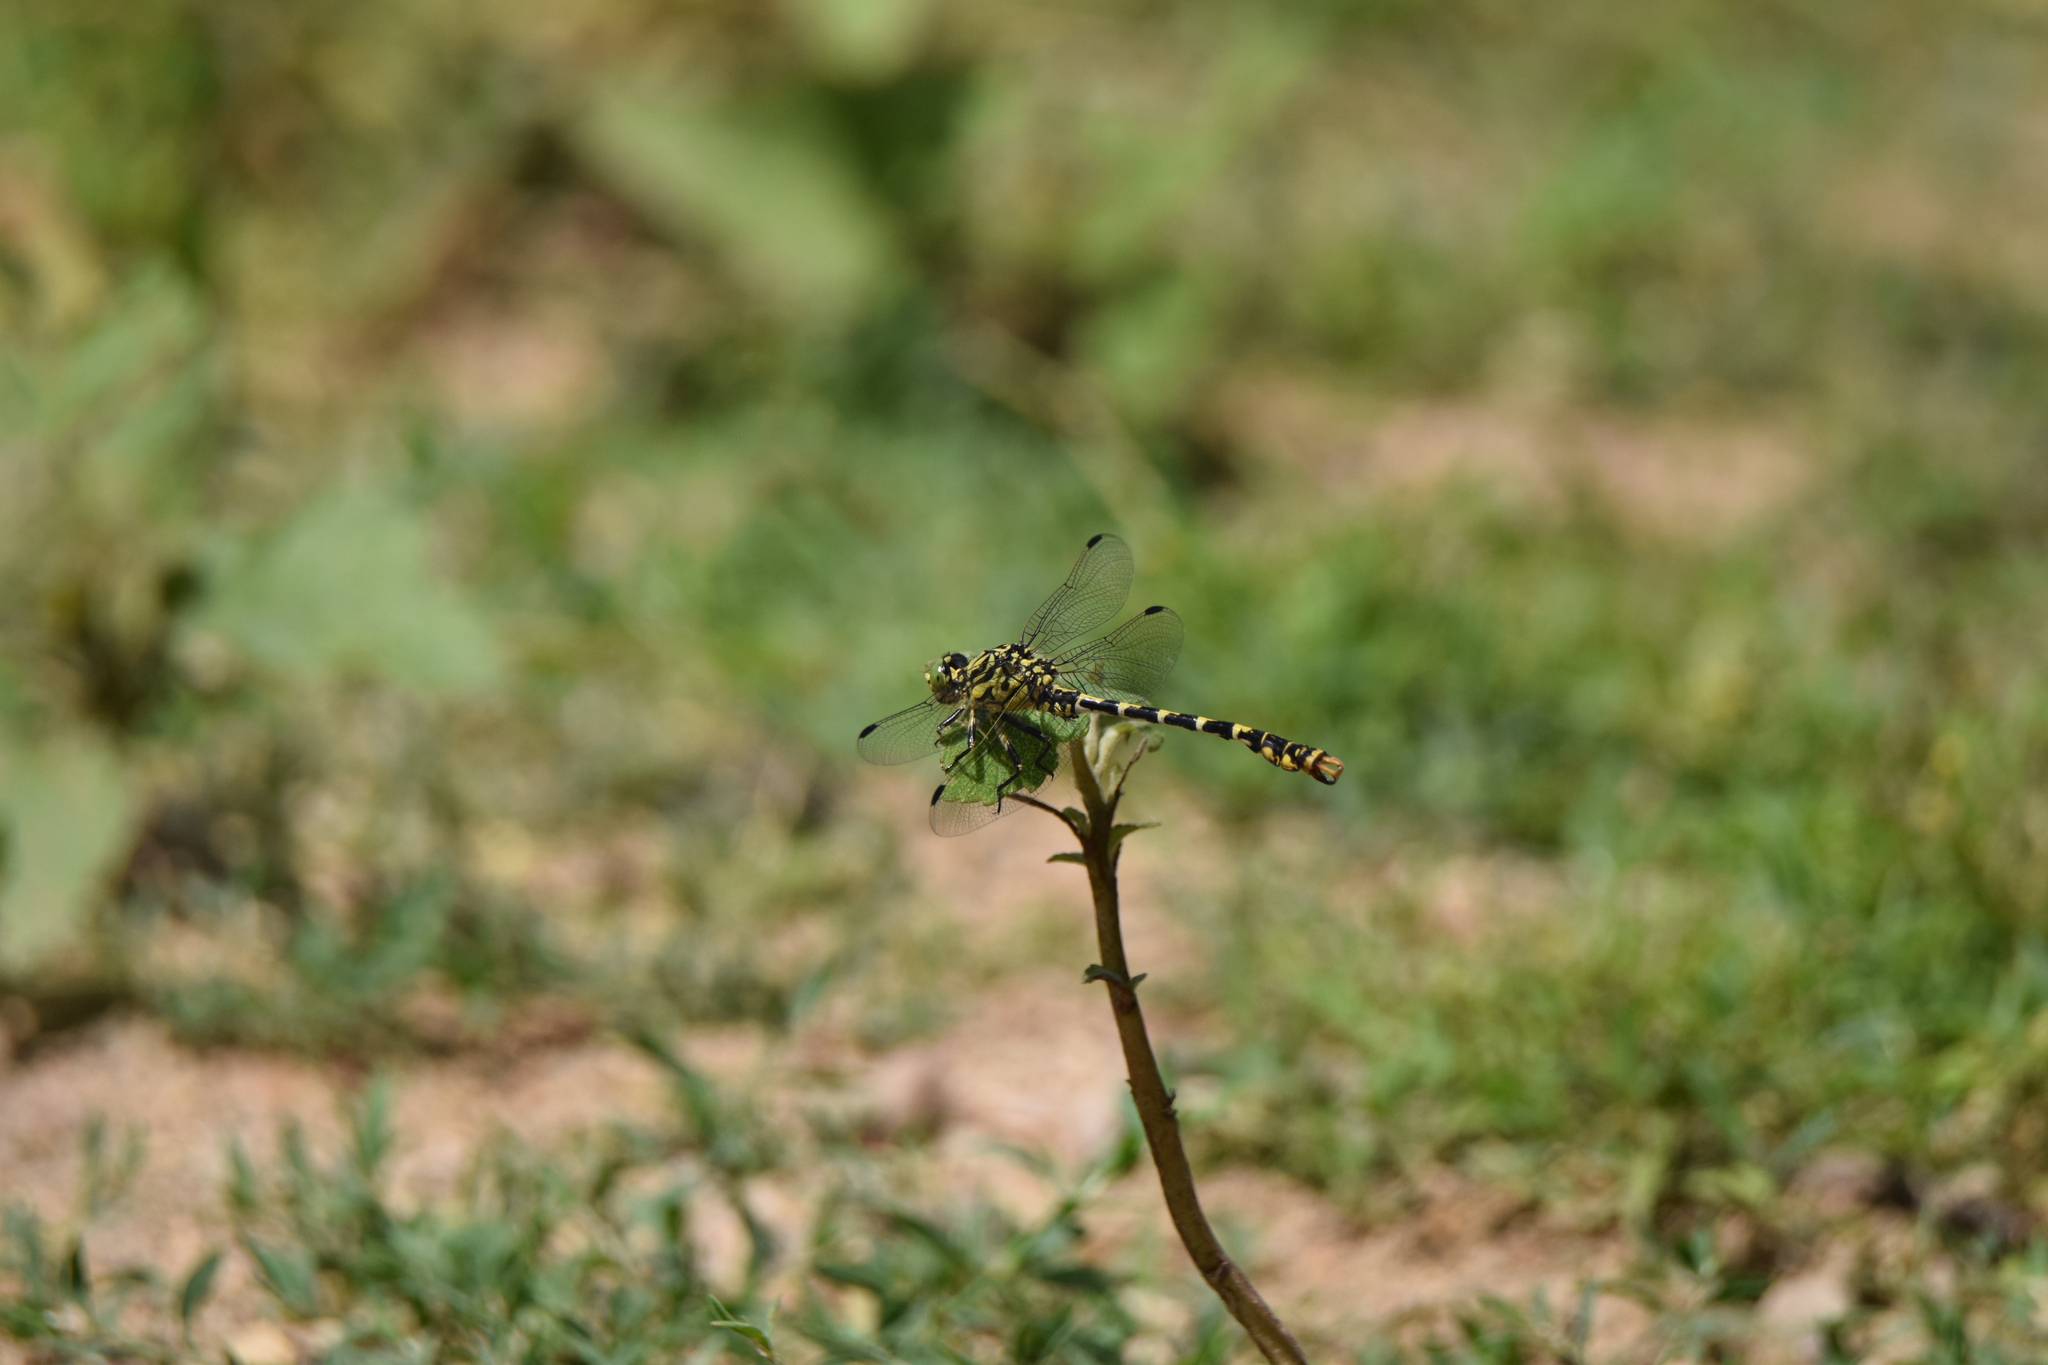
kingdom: Animalia
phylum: Arthropoda
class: Insecta
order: Odonata
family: Gomphidae
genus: Onychogomphus
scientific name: Onychogomphus forcipatus
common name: Small pincertail
